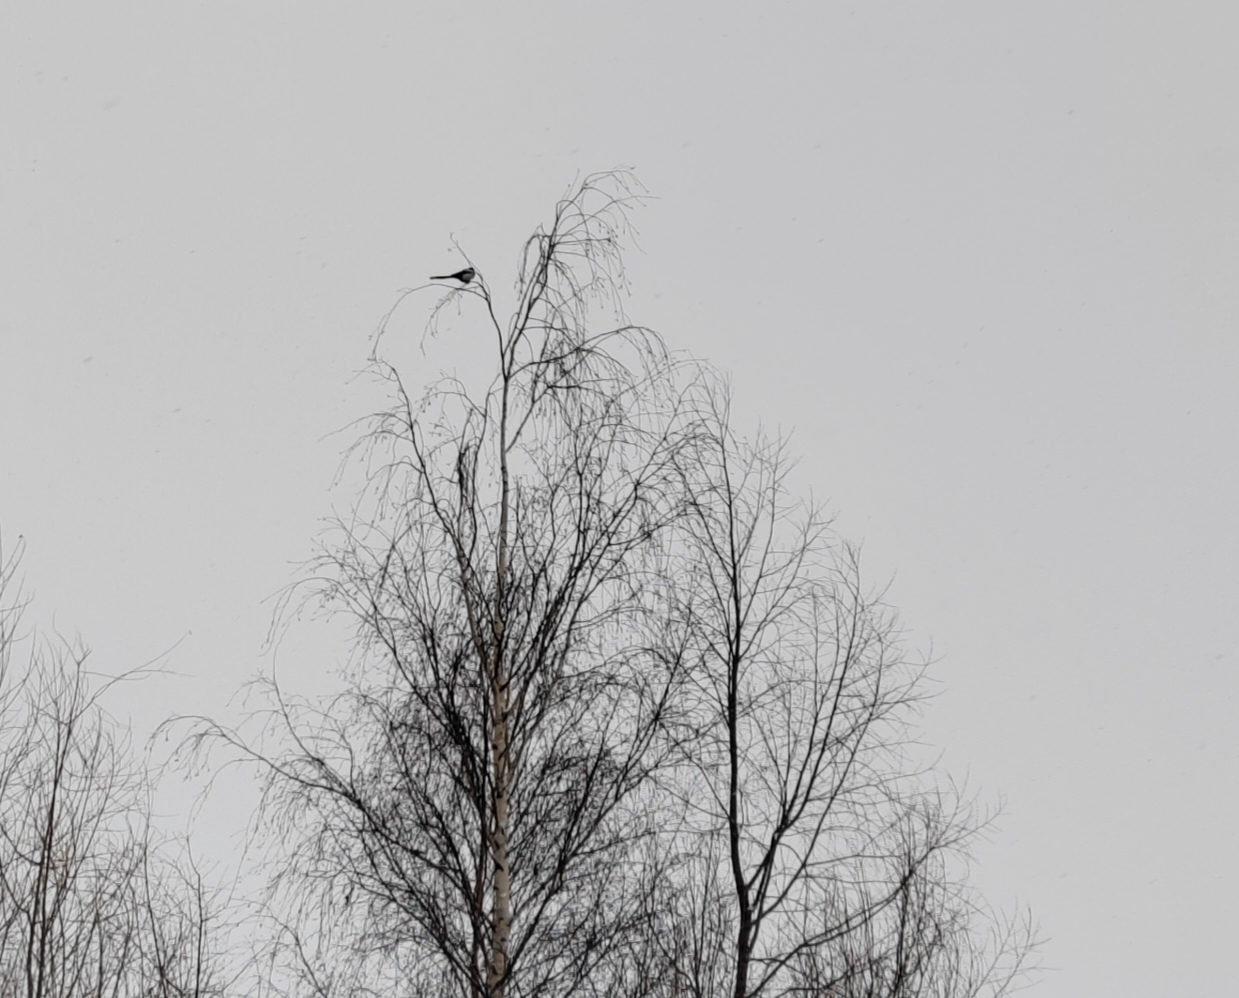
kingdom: Animalia
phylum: Chordata
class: Aves
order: Passeriformes
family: Corvidae
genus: Pica
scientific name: Pica pica
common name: Eurasian magpie
